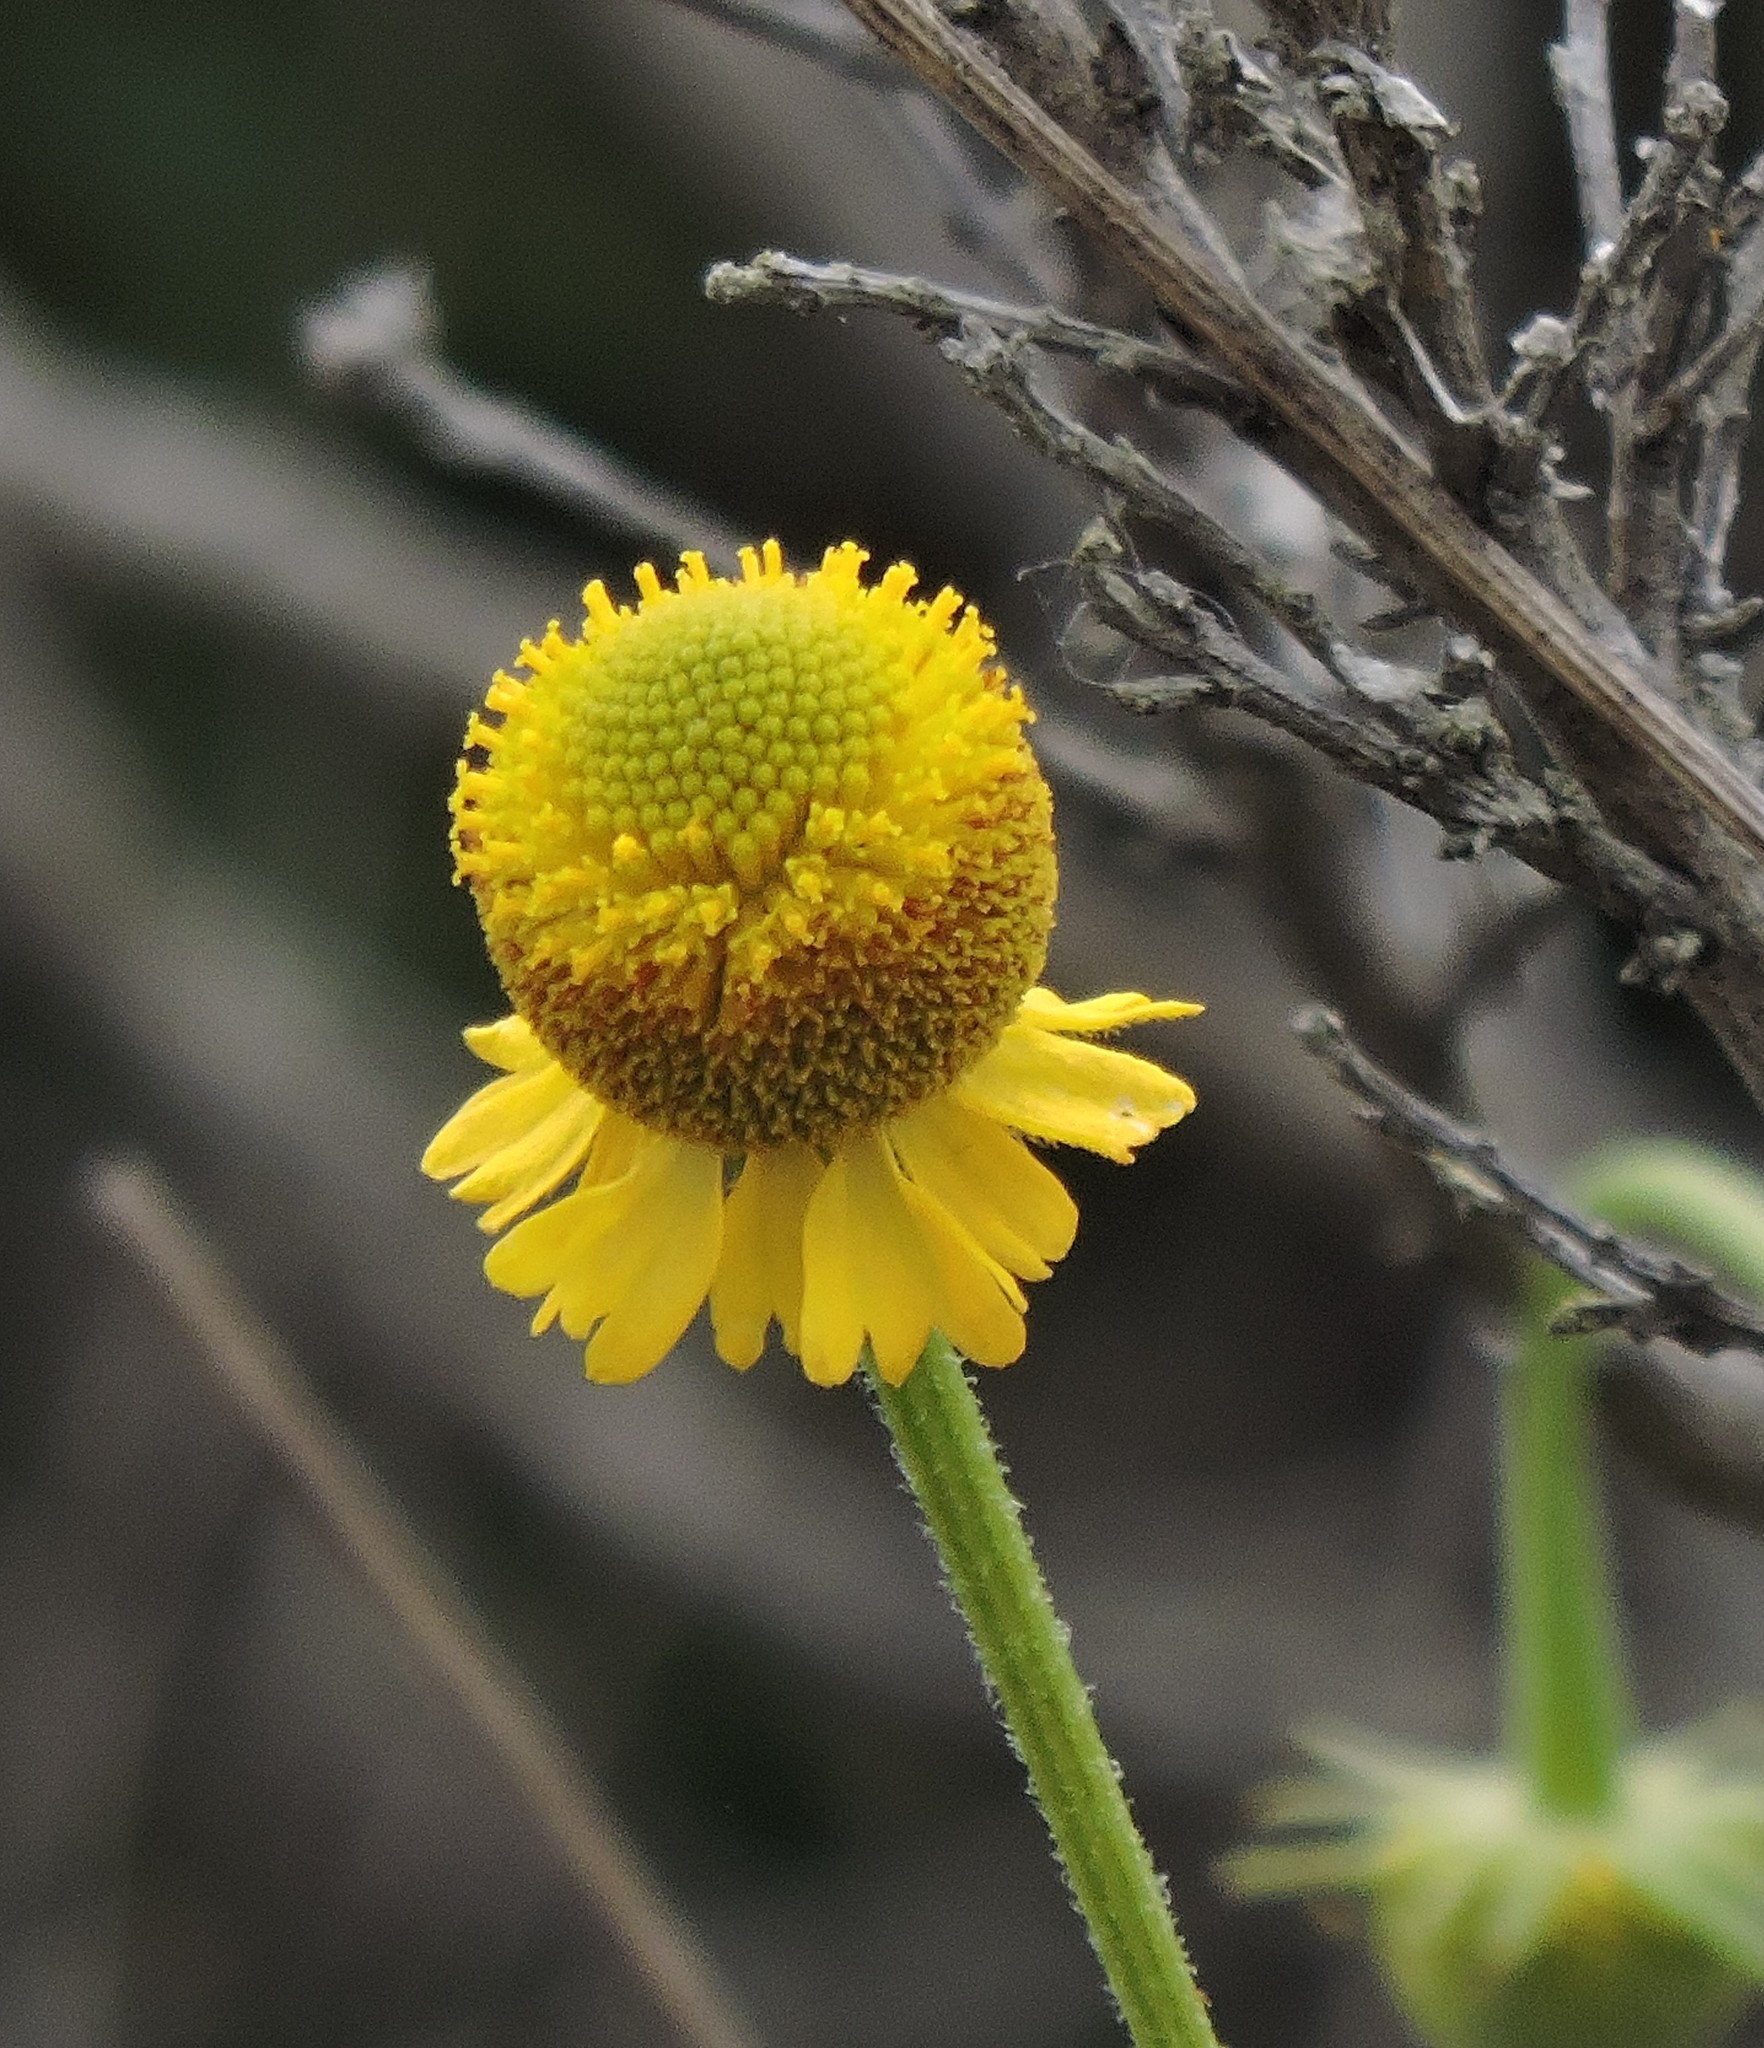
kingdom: Plantae
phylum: Tracheophyta
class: Magnoliopsida
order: Asterales
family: Asteraceae
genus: Helenium
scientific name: Helenium puberulum
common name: Sneezewort
